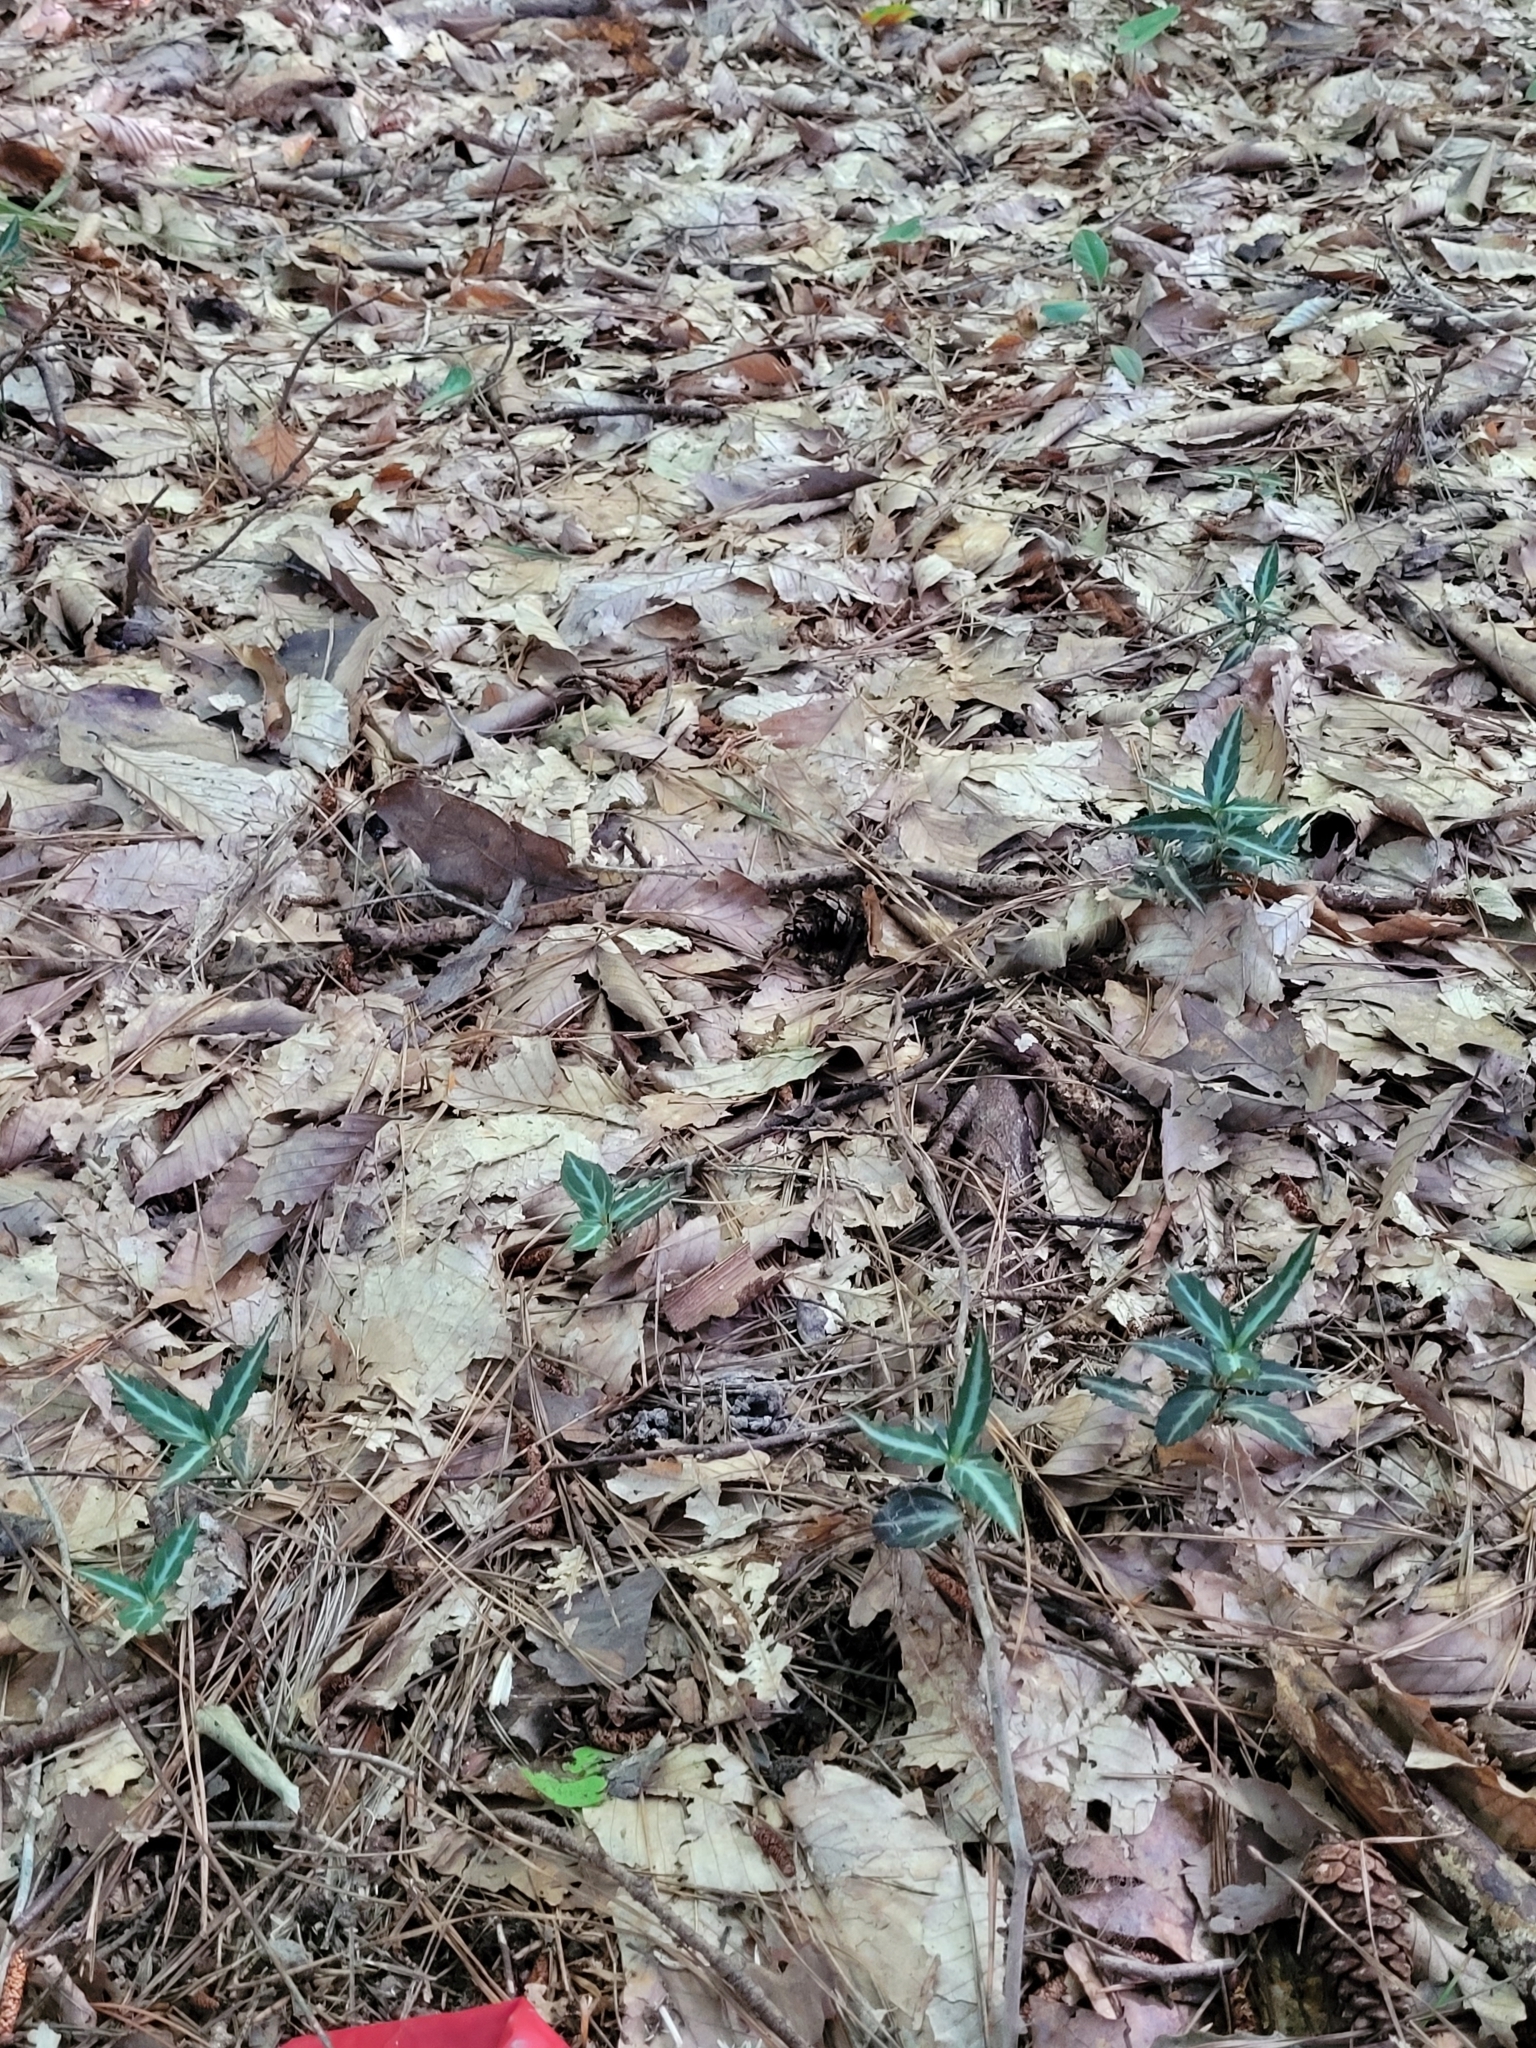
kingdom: Plantae
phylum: Tracheophyta
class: Magnoliopsida
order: Ericales
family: Ericaceae
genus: Chimaphila
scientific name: Chimaphila maculata
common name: Spotted pipsissewa
